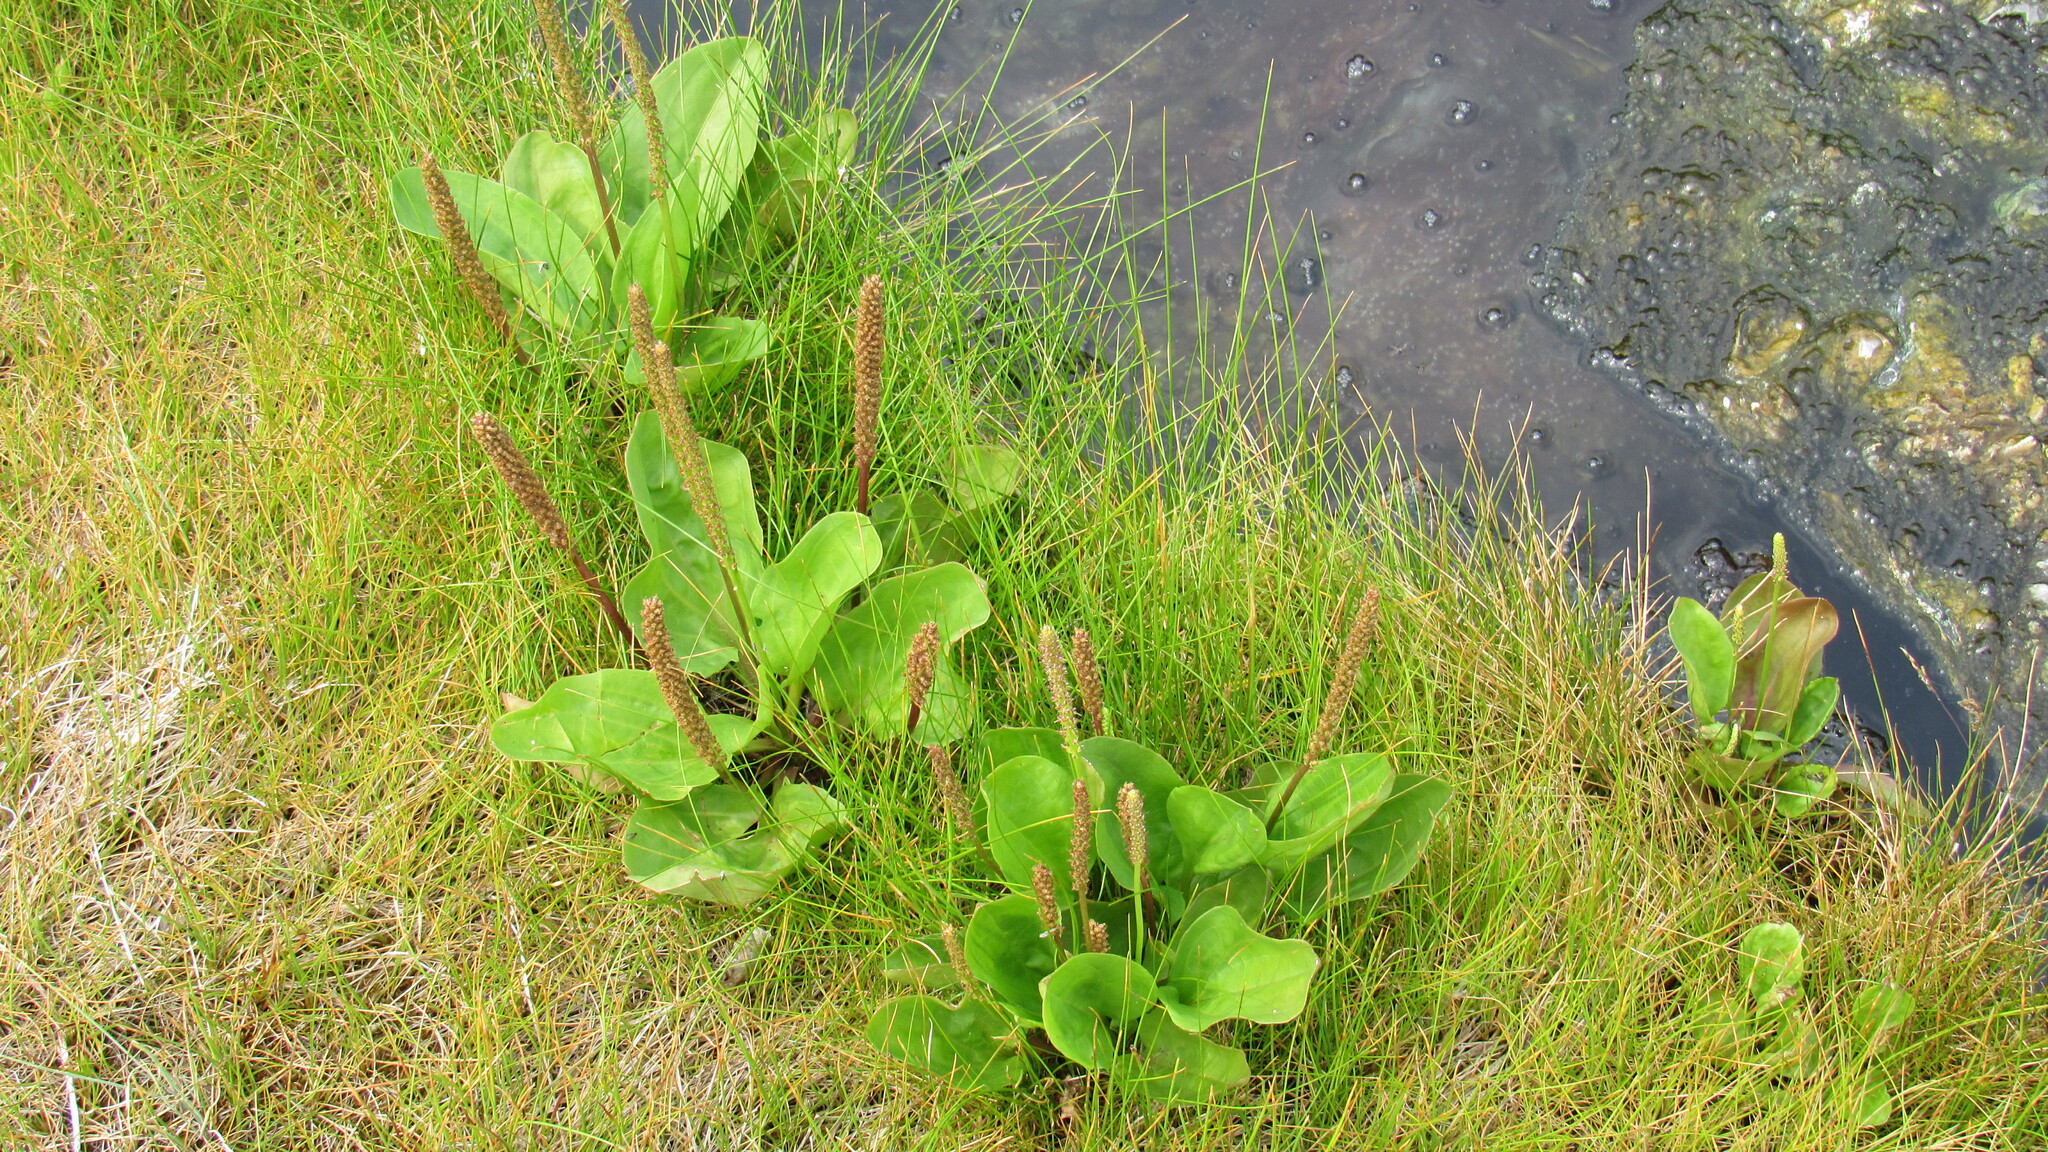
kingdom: Plantae
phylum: Tracheophyta
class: Liliopsida
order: Poales
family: Cyperaceae
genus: Eleocharis
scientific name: Eleocharis acicularis
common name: Needle spike-rush
